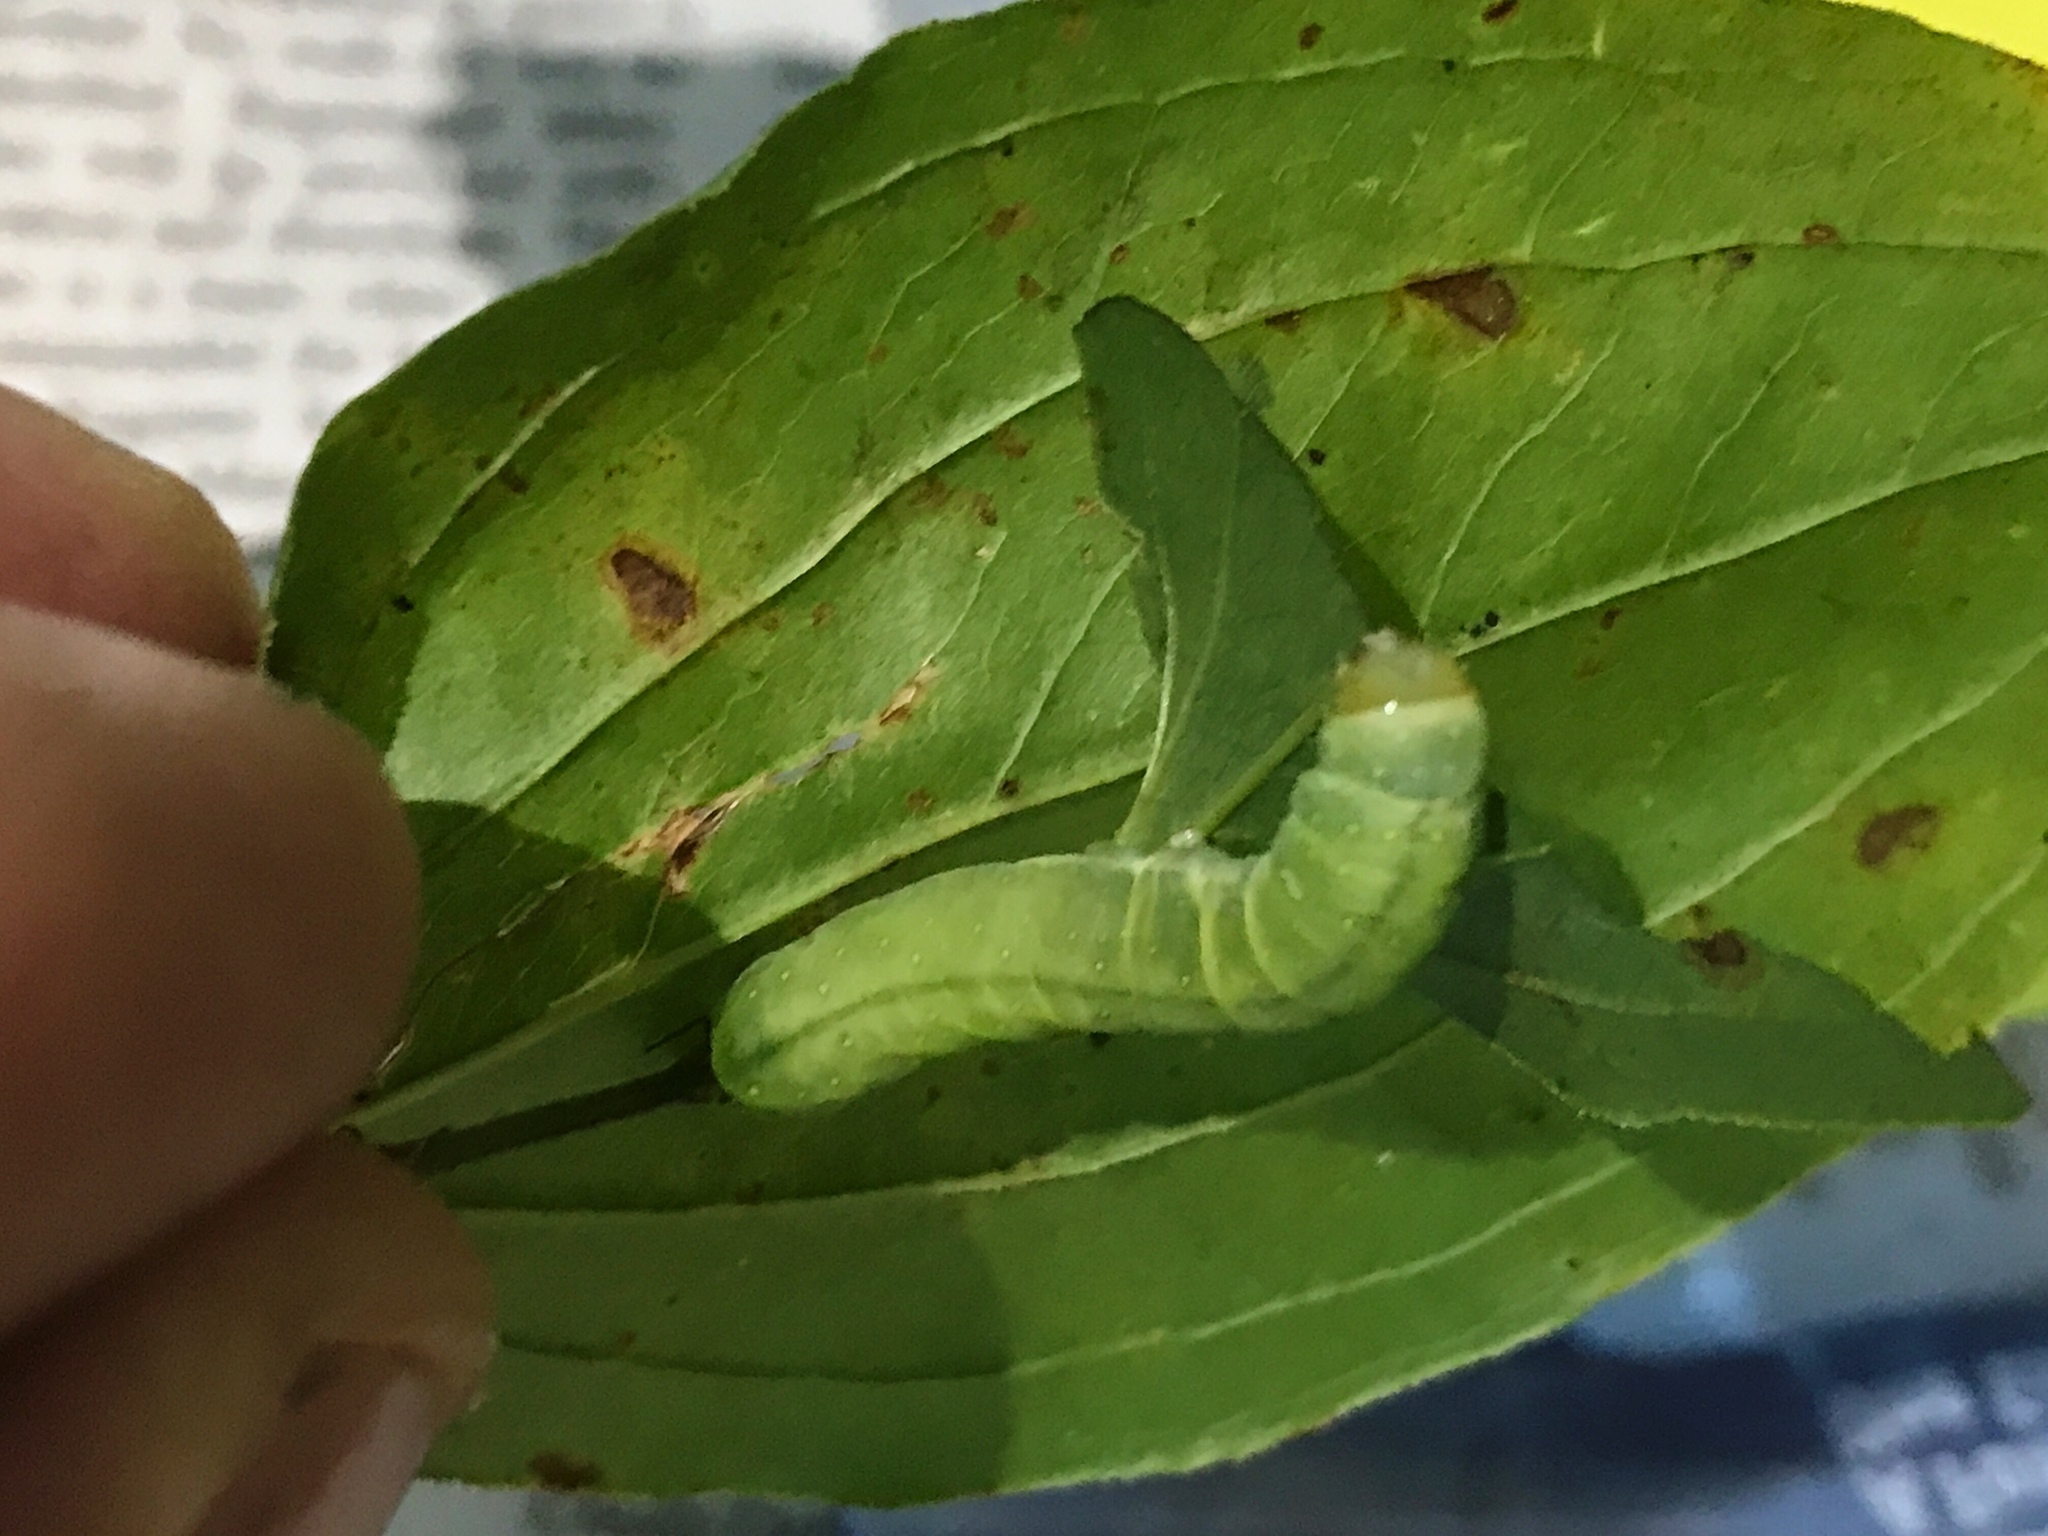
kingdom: Animalia
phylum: Arthropoda
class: Insecta
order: Lepidoptera
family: Noctuidae
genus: Phosphila
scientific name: Phosphila miselioides
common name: Spotted phosphila moth
